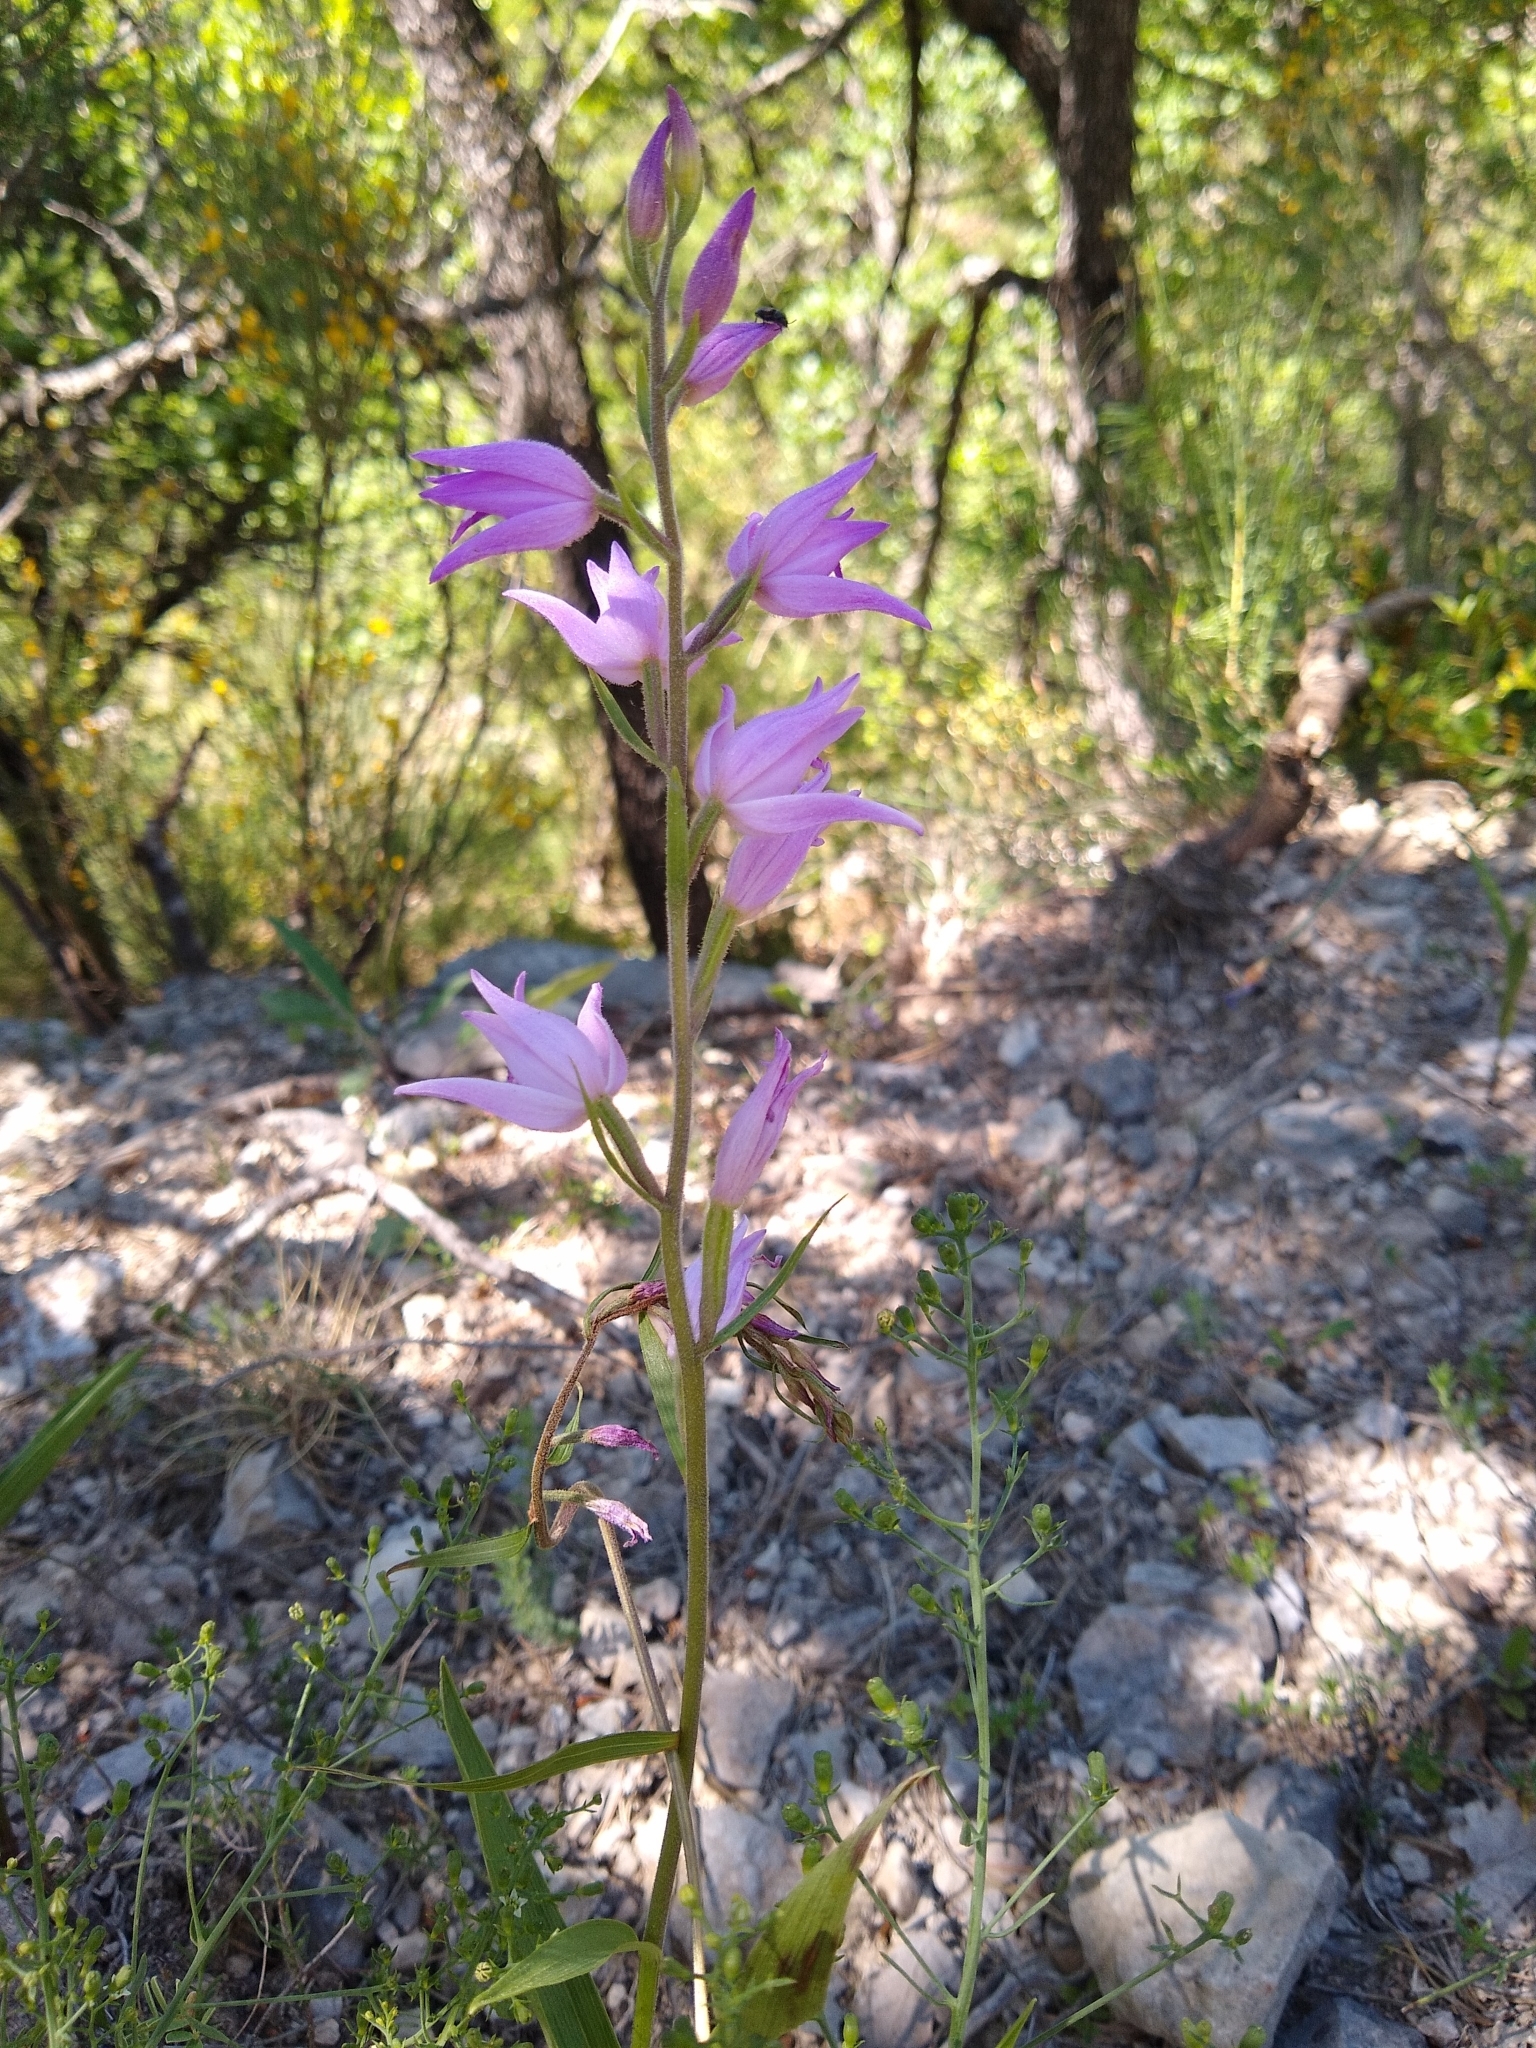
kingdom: Plantae
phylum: Tracheophyta
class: Liliopsida
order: Asparagales
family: Orchidaceae
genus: Cephalanthera
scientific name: Cephalanthera rubra
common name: Red helleborine
